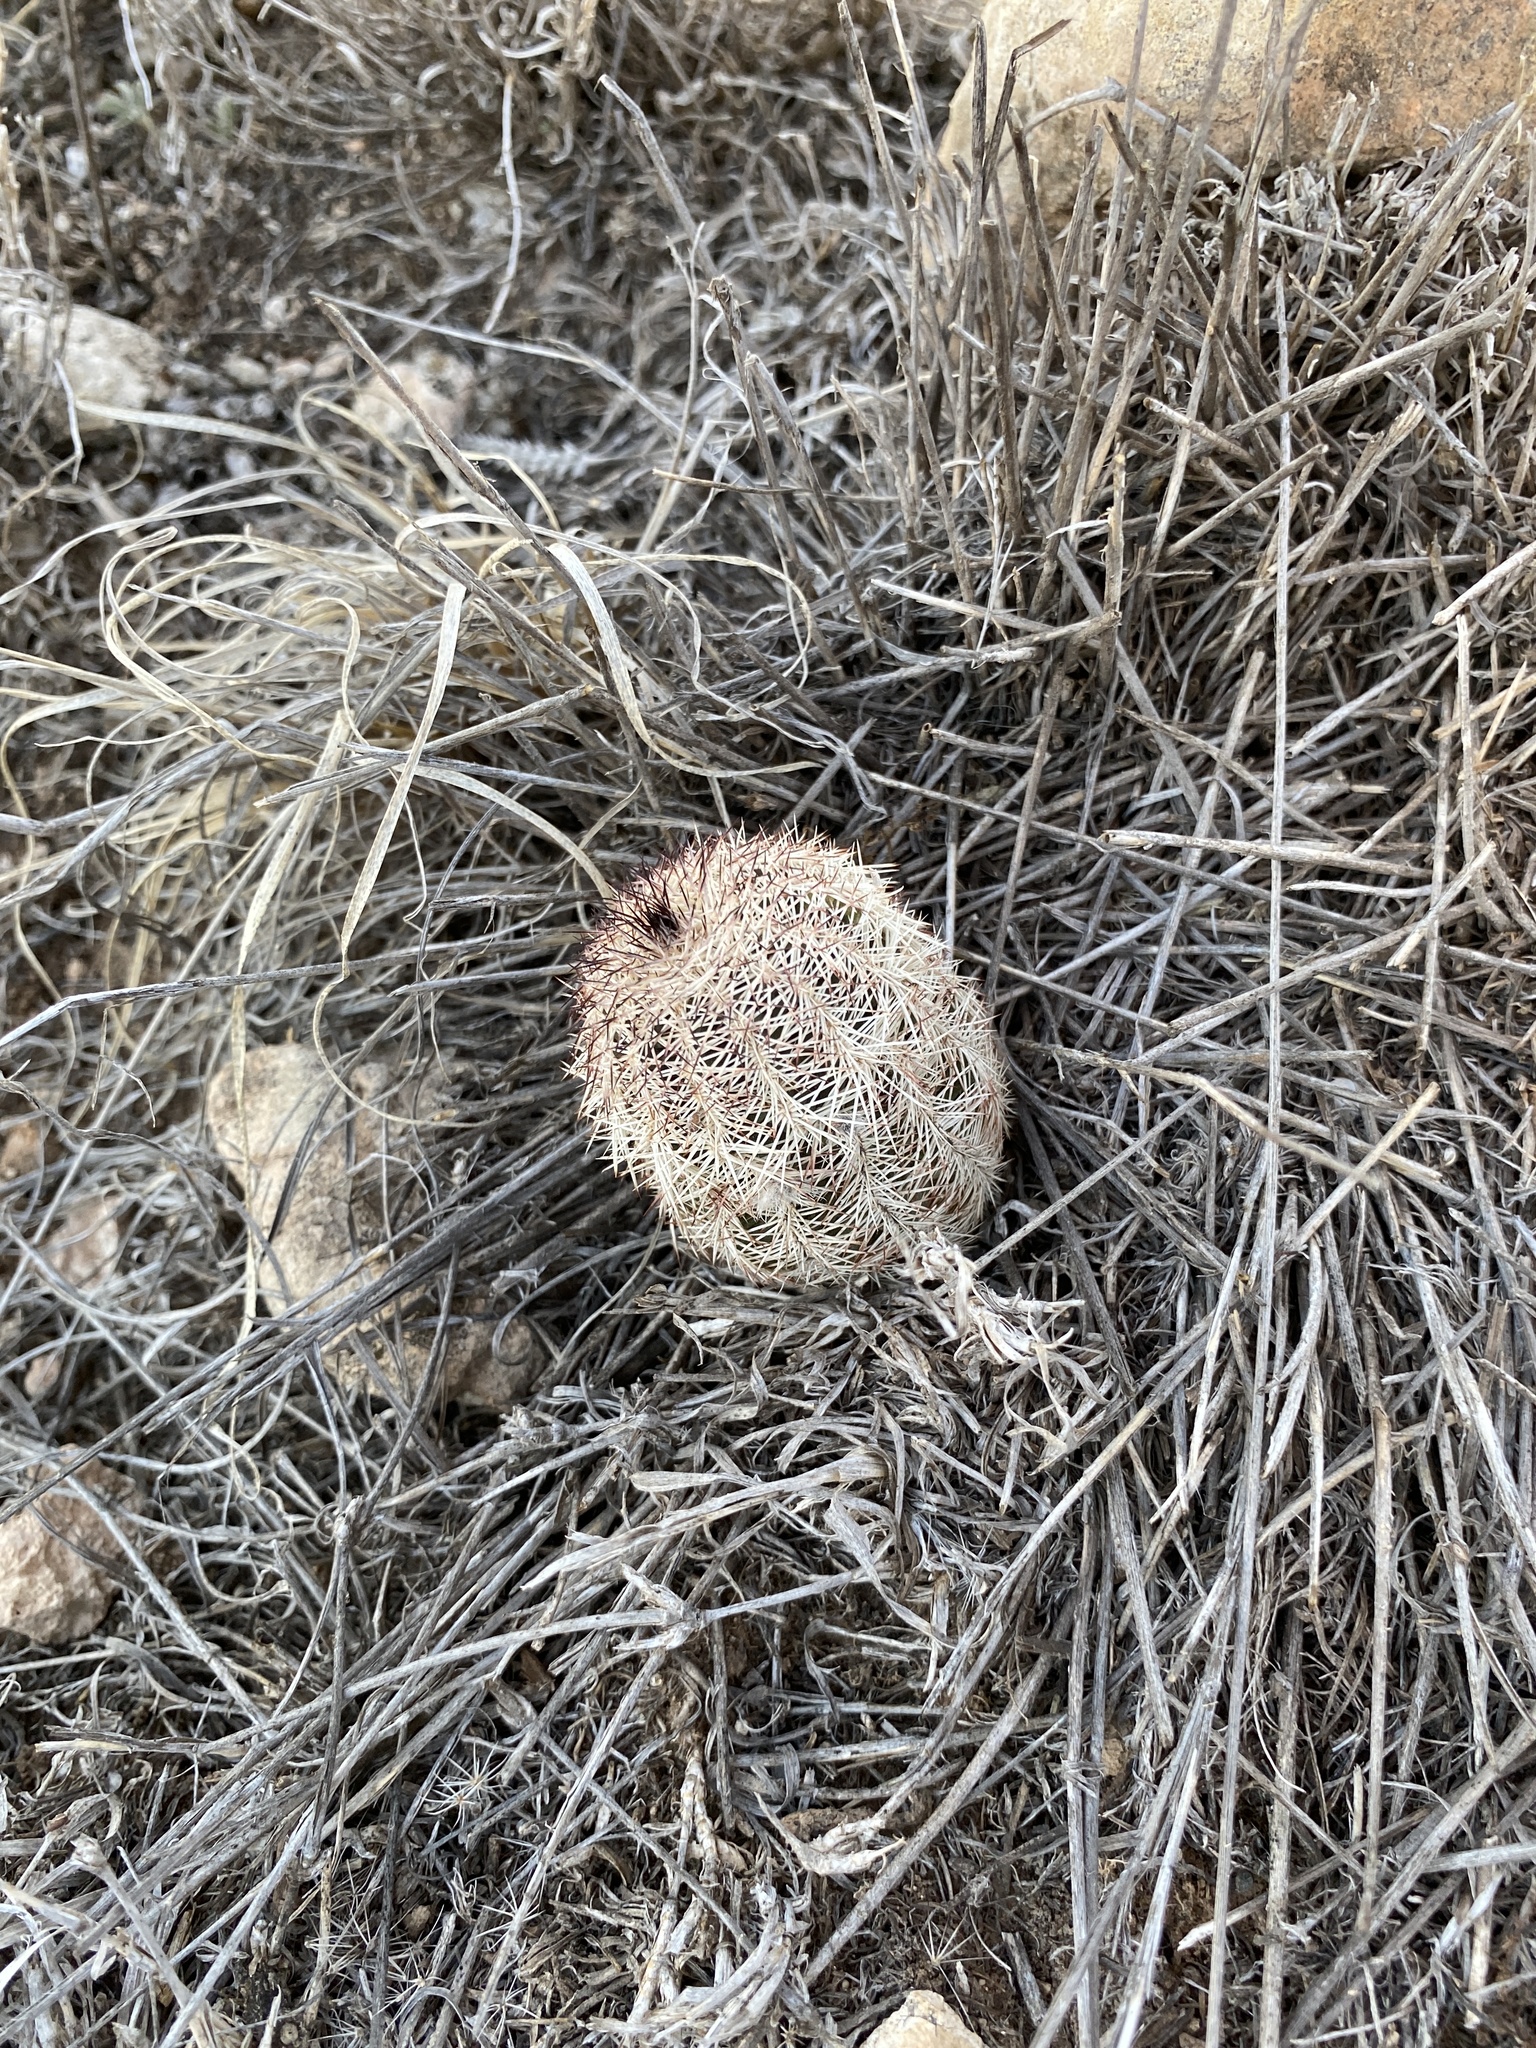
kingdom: Plantae
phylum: Tracheophyta
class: Magnoliopsida
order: Caryophyllales
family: Cactaceae
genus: Echinocereus
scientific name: Echinocereus reichenbachii
